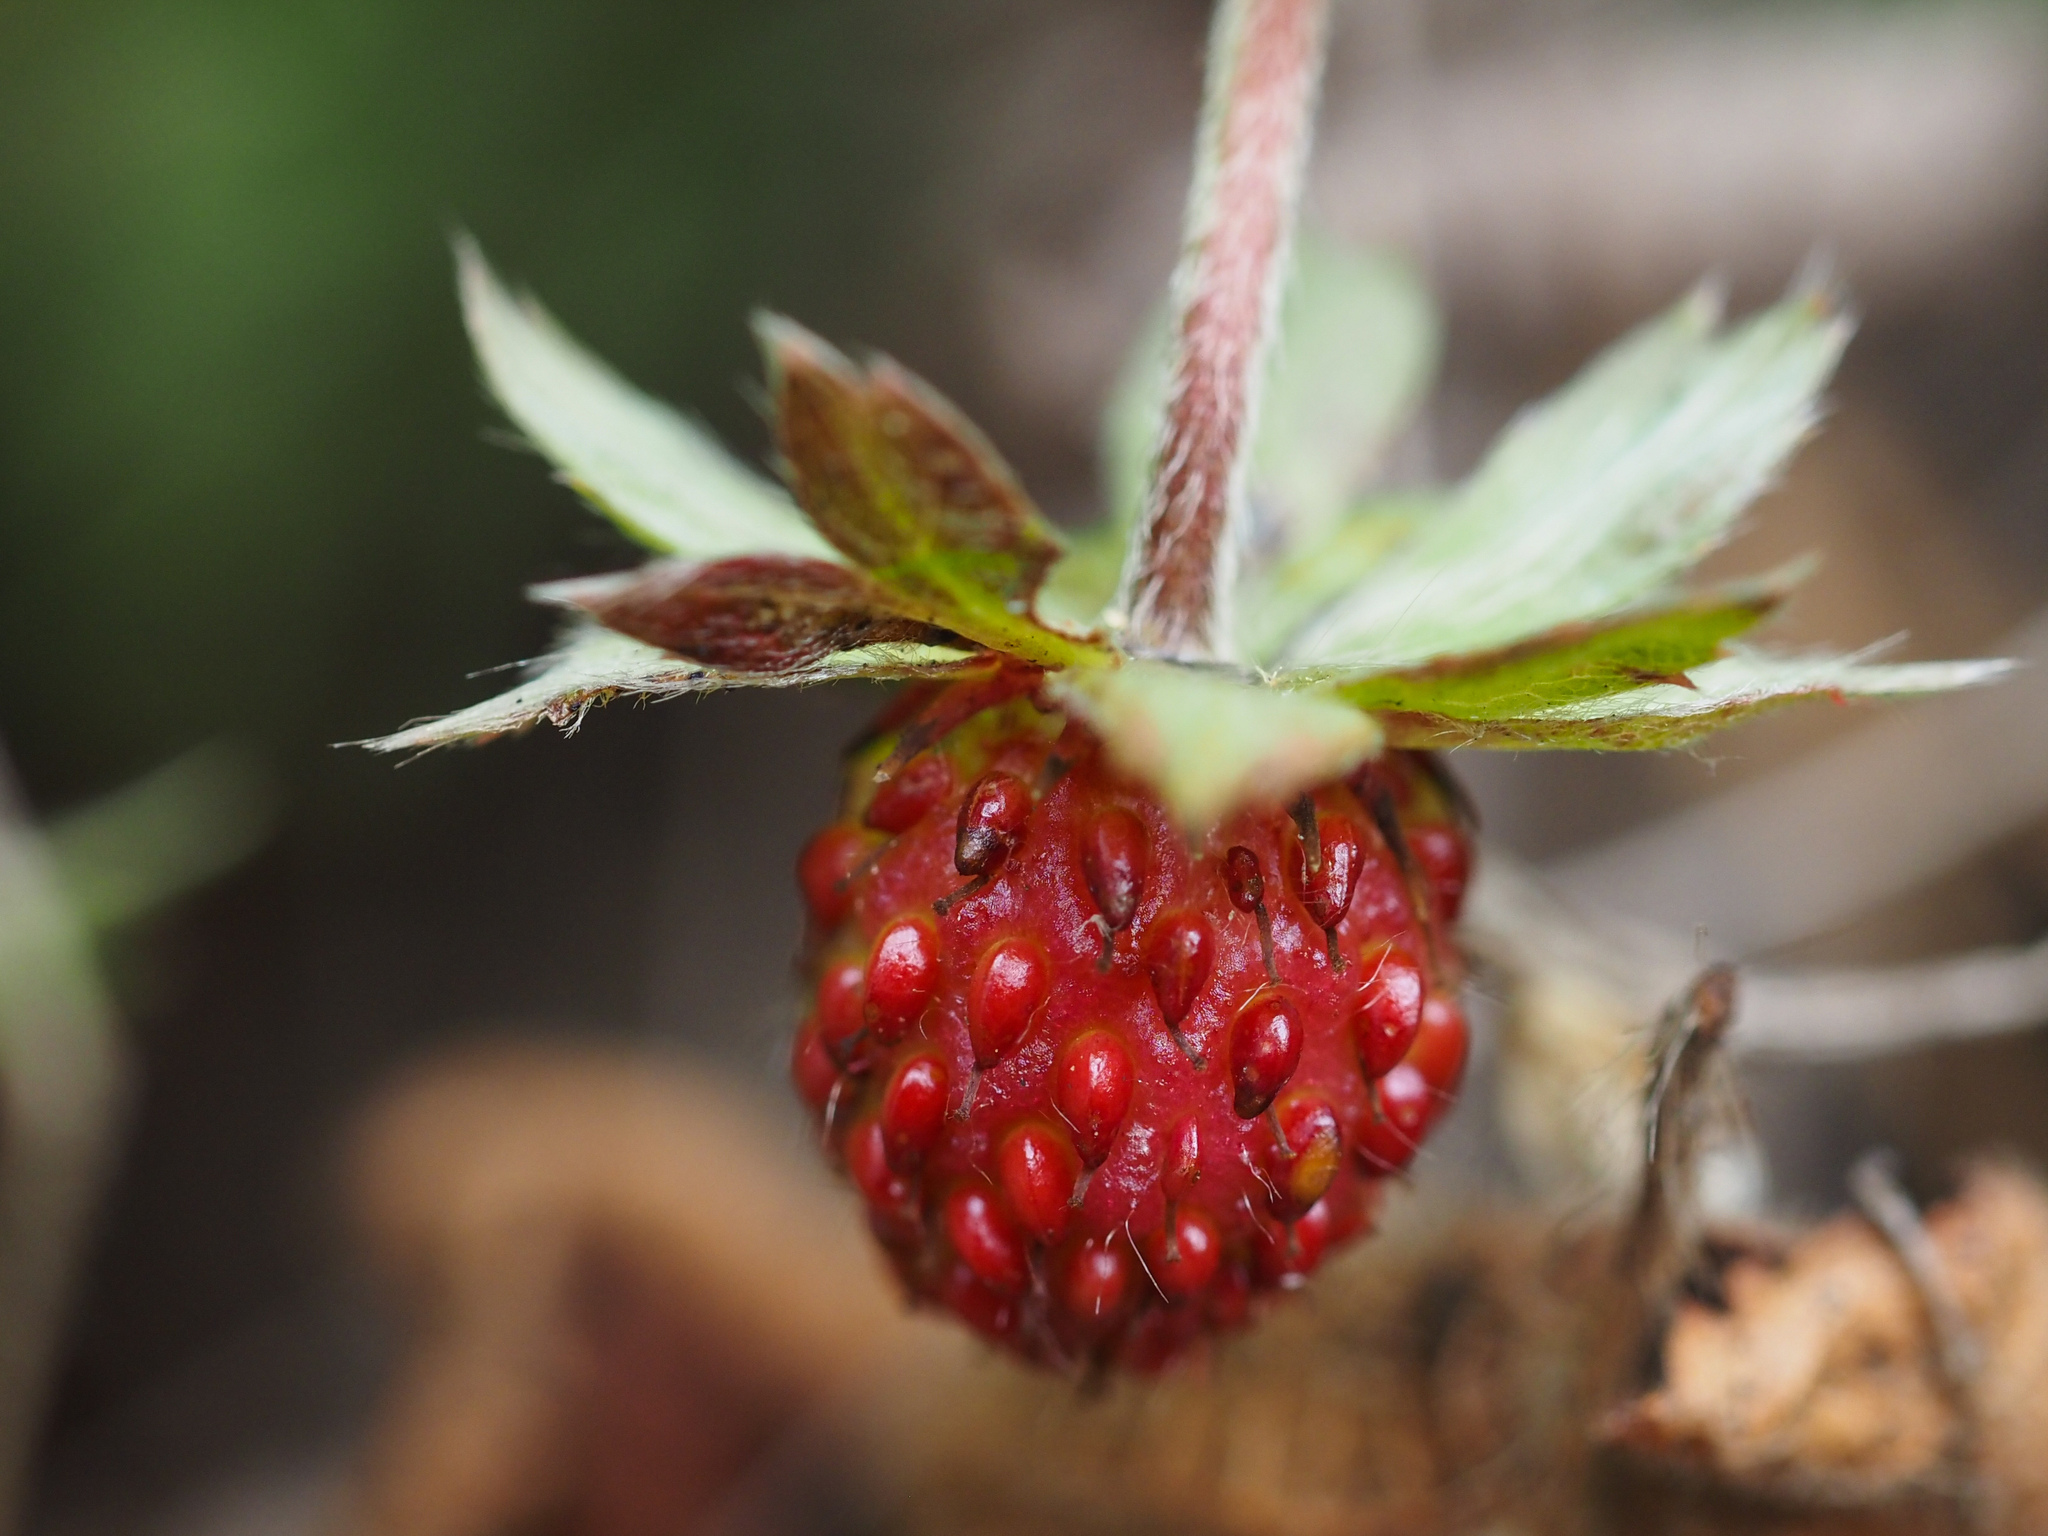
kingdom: Plantae
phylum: Tracheophyta
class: Magnoliopsida
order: Rosales
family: Rosaceae
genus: Fragaria
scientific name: Fragaria vesca
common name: Wild strawberry
